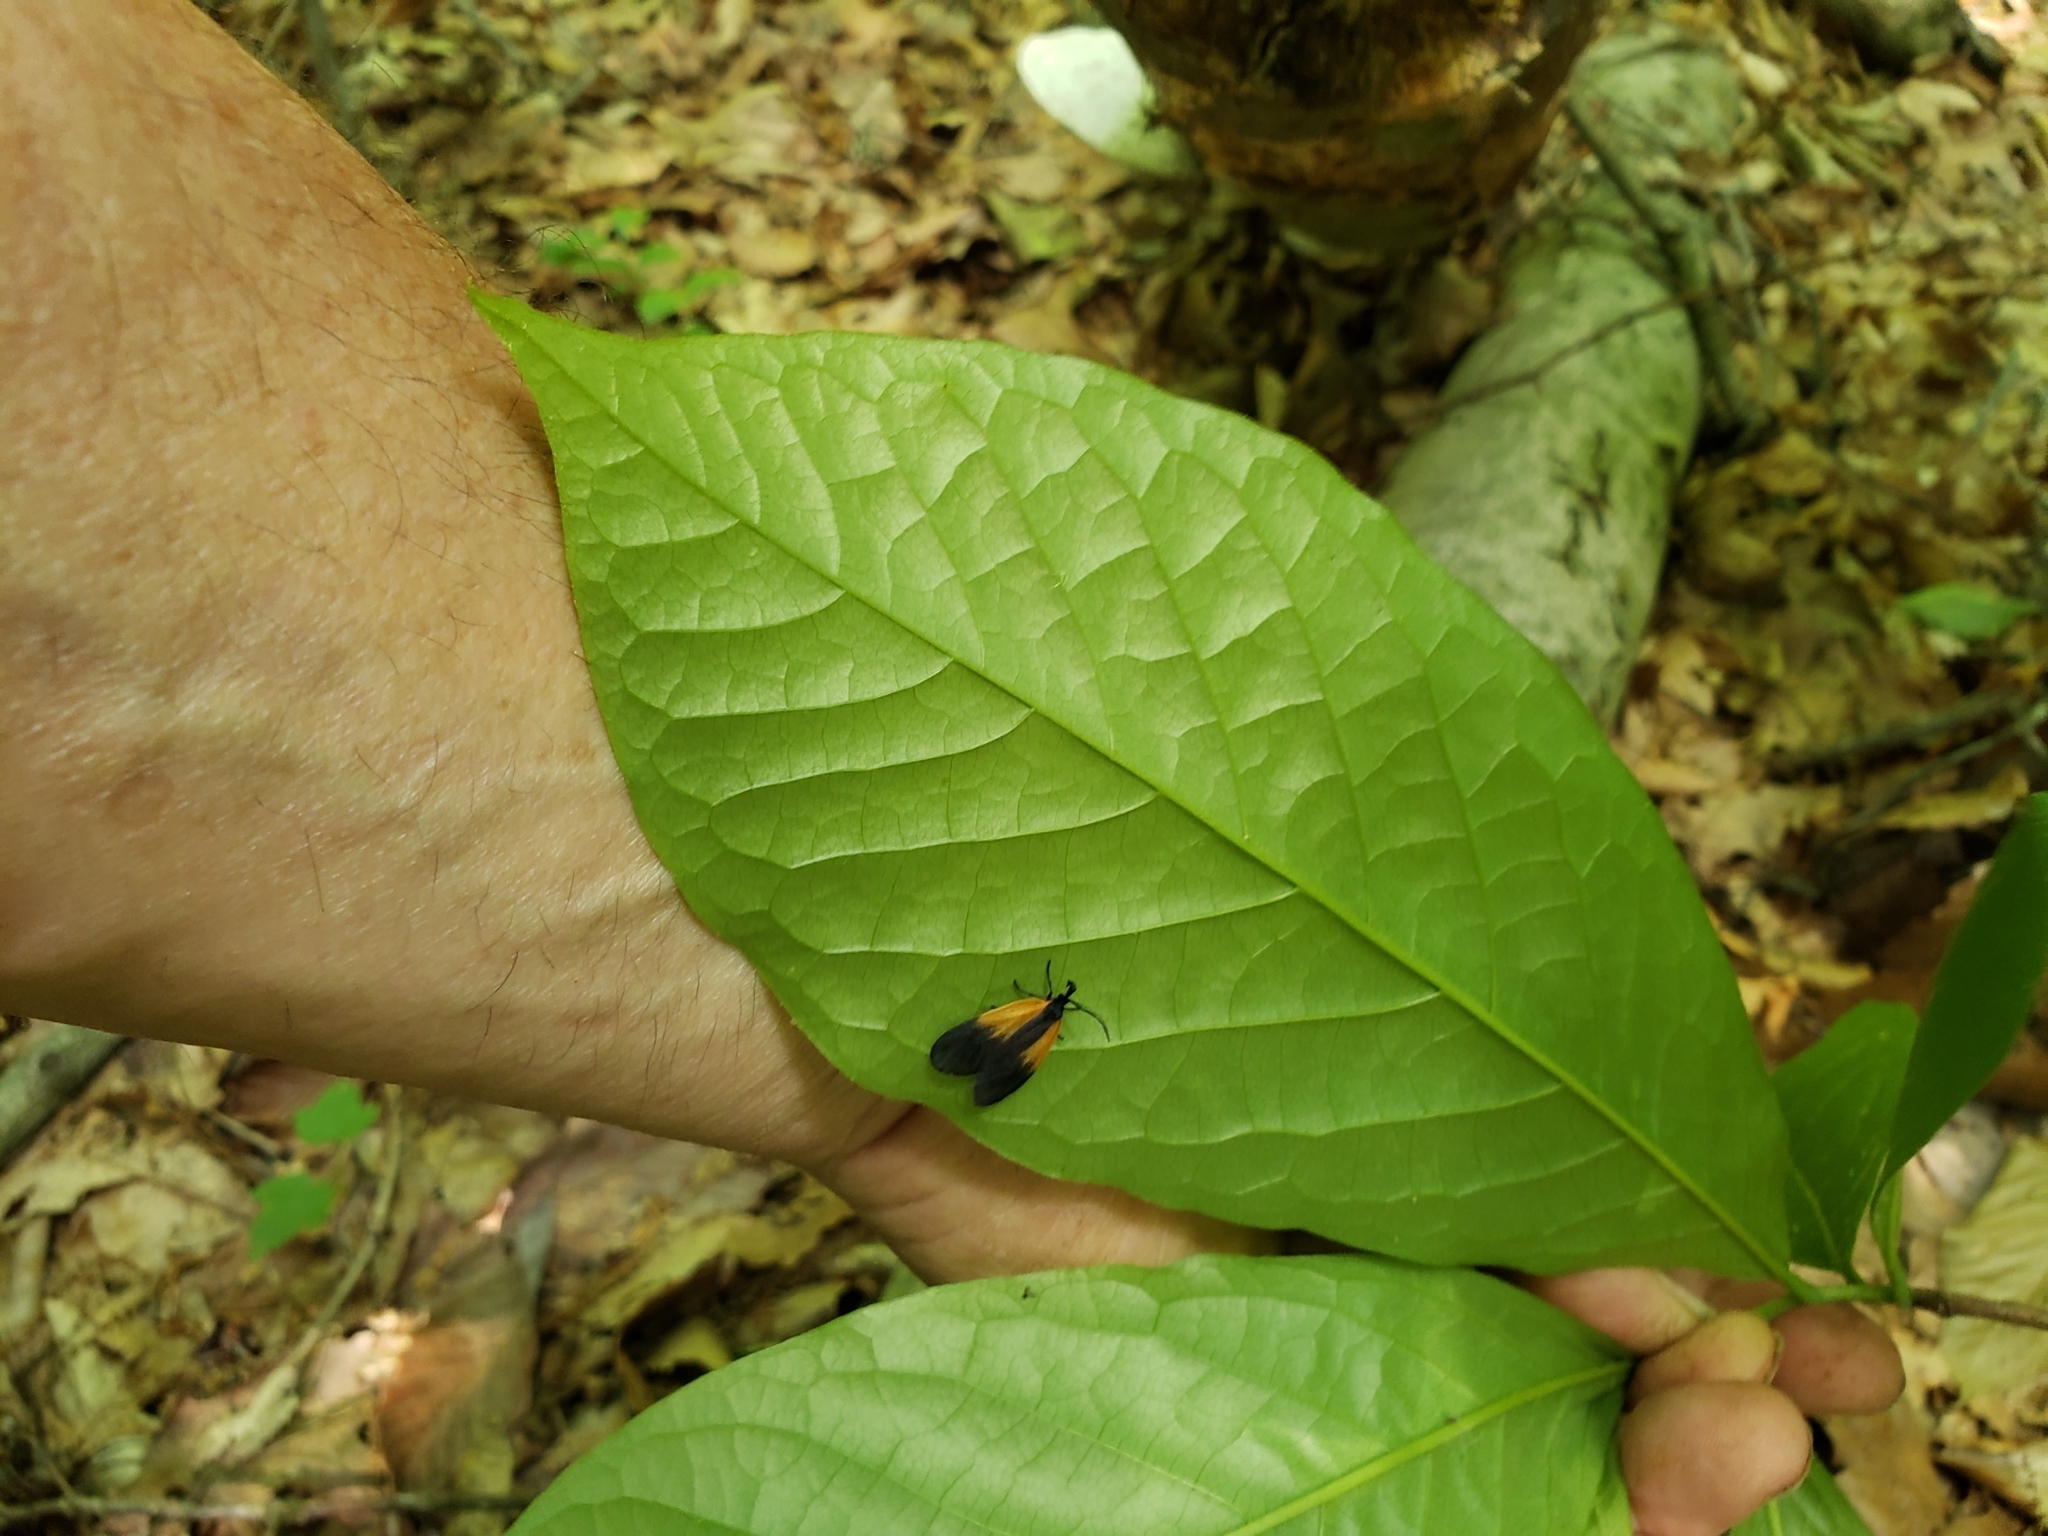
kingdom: Animalia
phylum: Arthropoda
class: Insecta
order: Lepidoptera
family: Zygaenidae
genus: Malthaca
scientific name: Malthaca dimidiata
